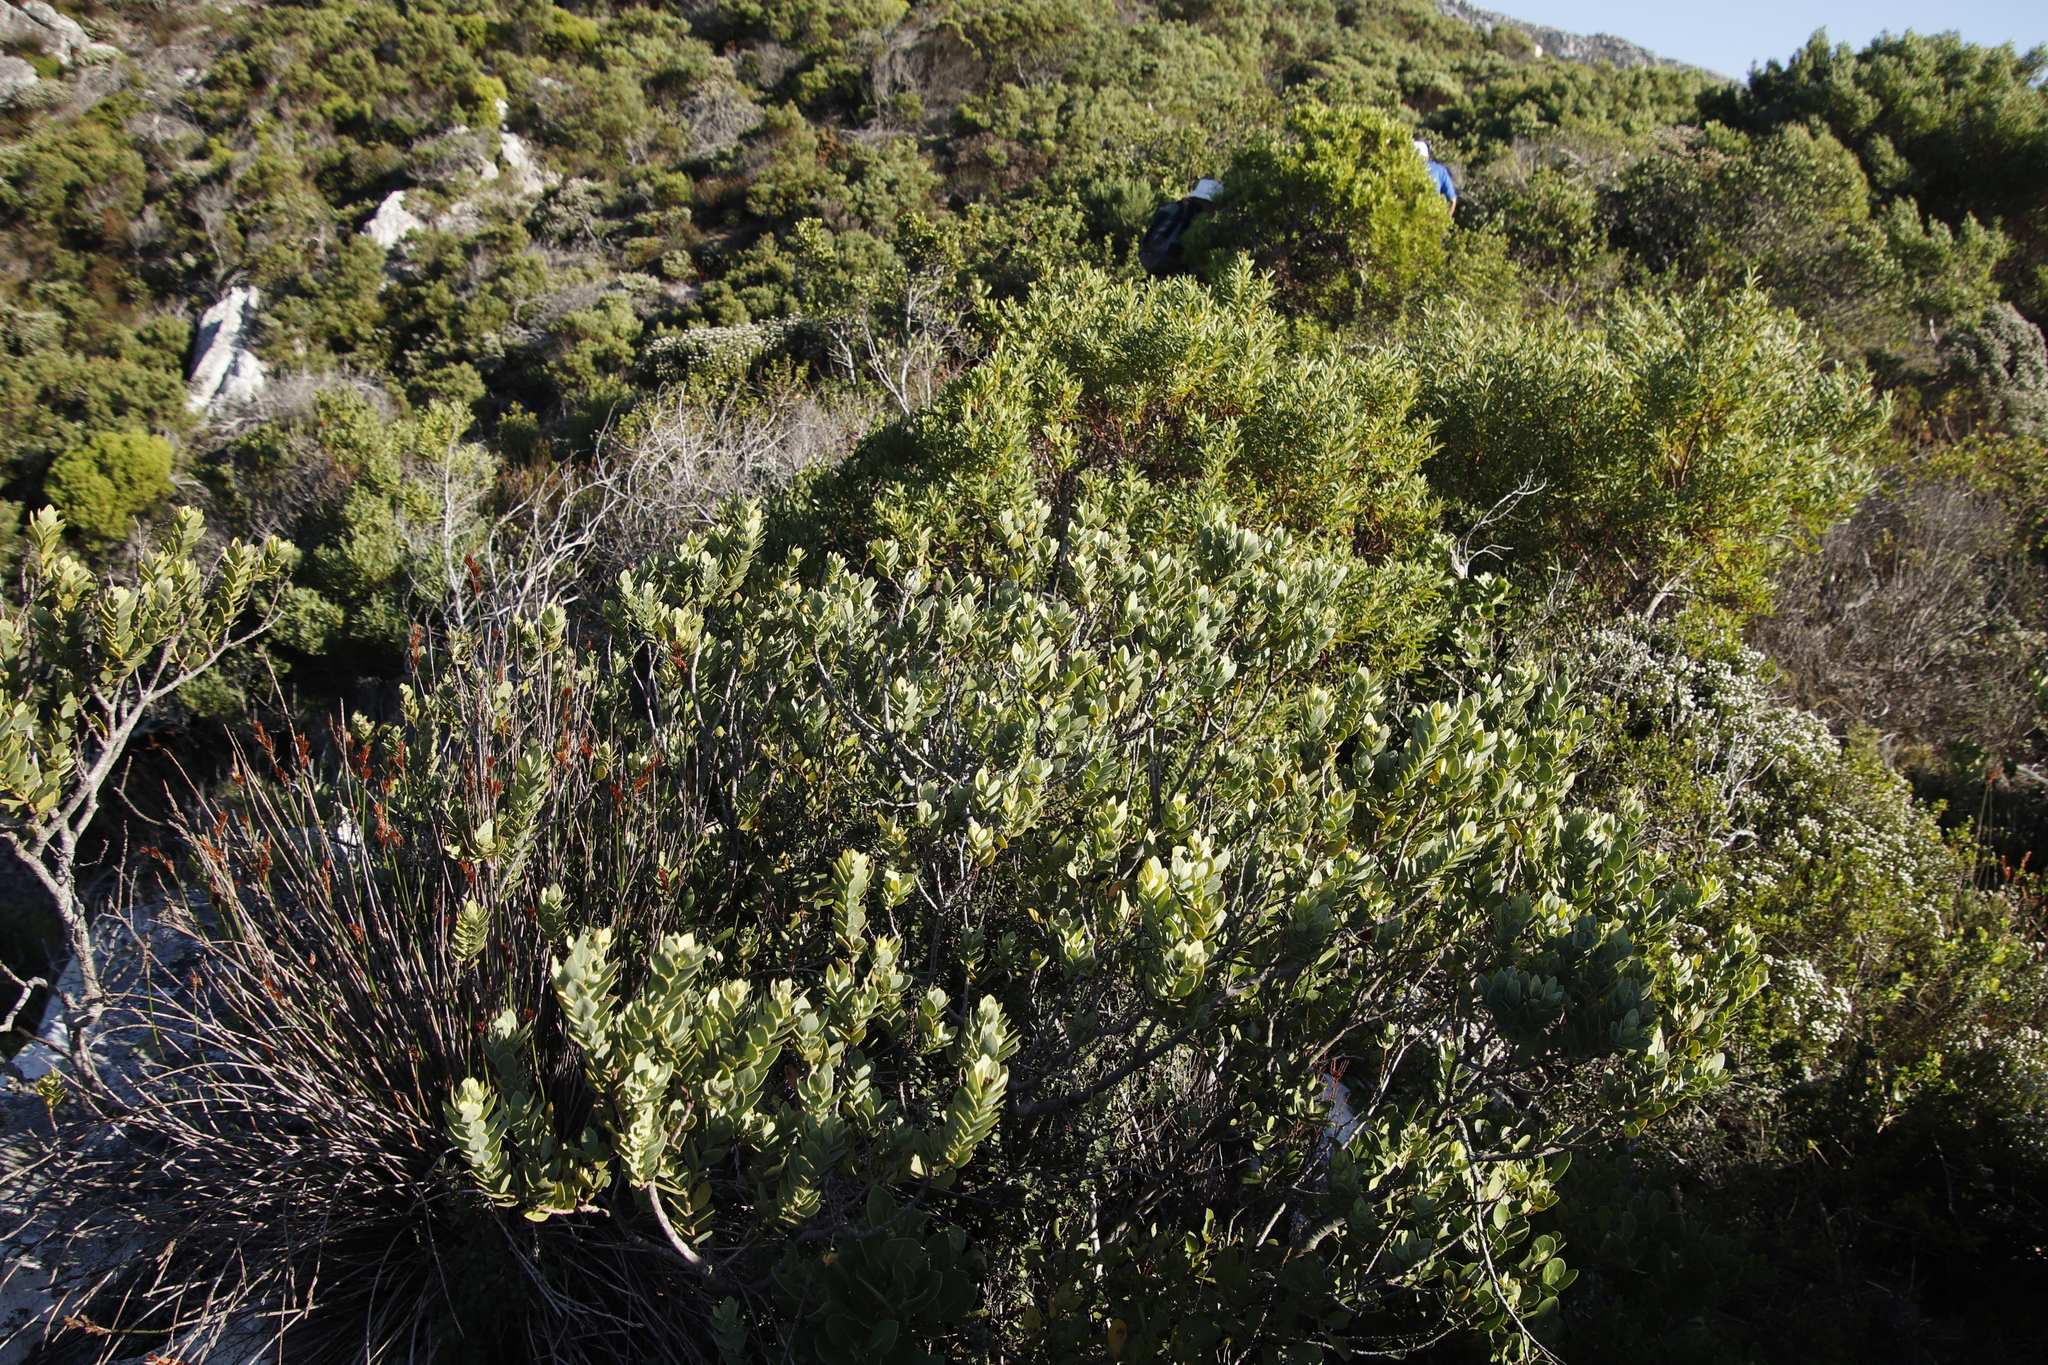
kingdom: Plantae
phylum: Tracheophyta
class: Magnoliopsida
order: Santalales
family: Santalaceae
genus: Osyris
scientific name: Osyris compressa
